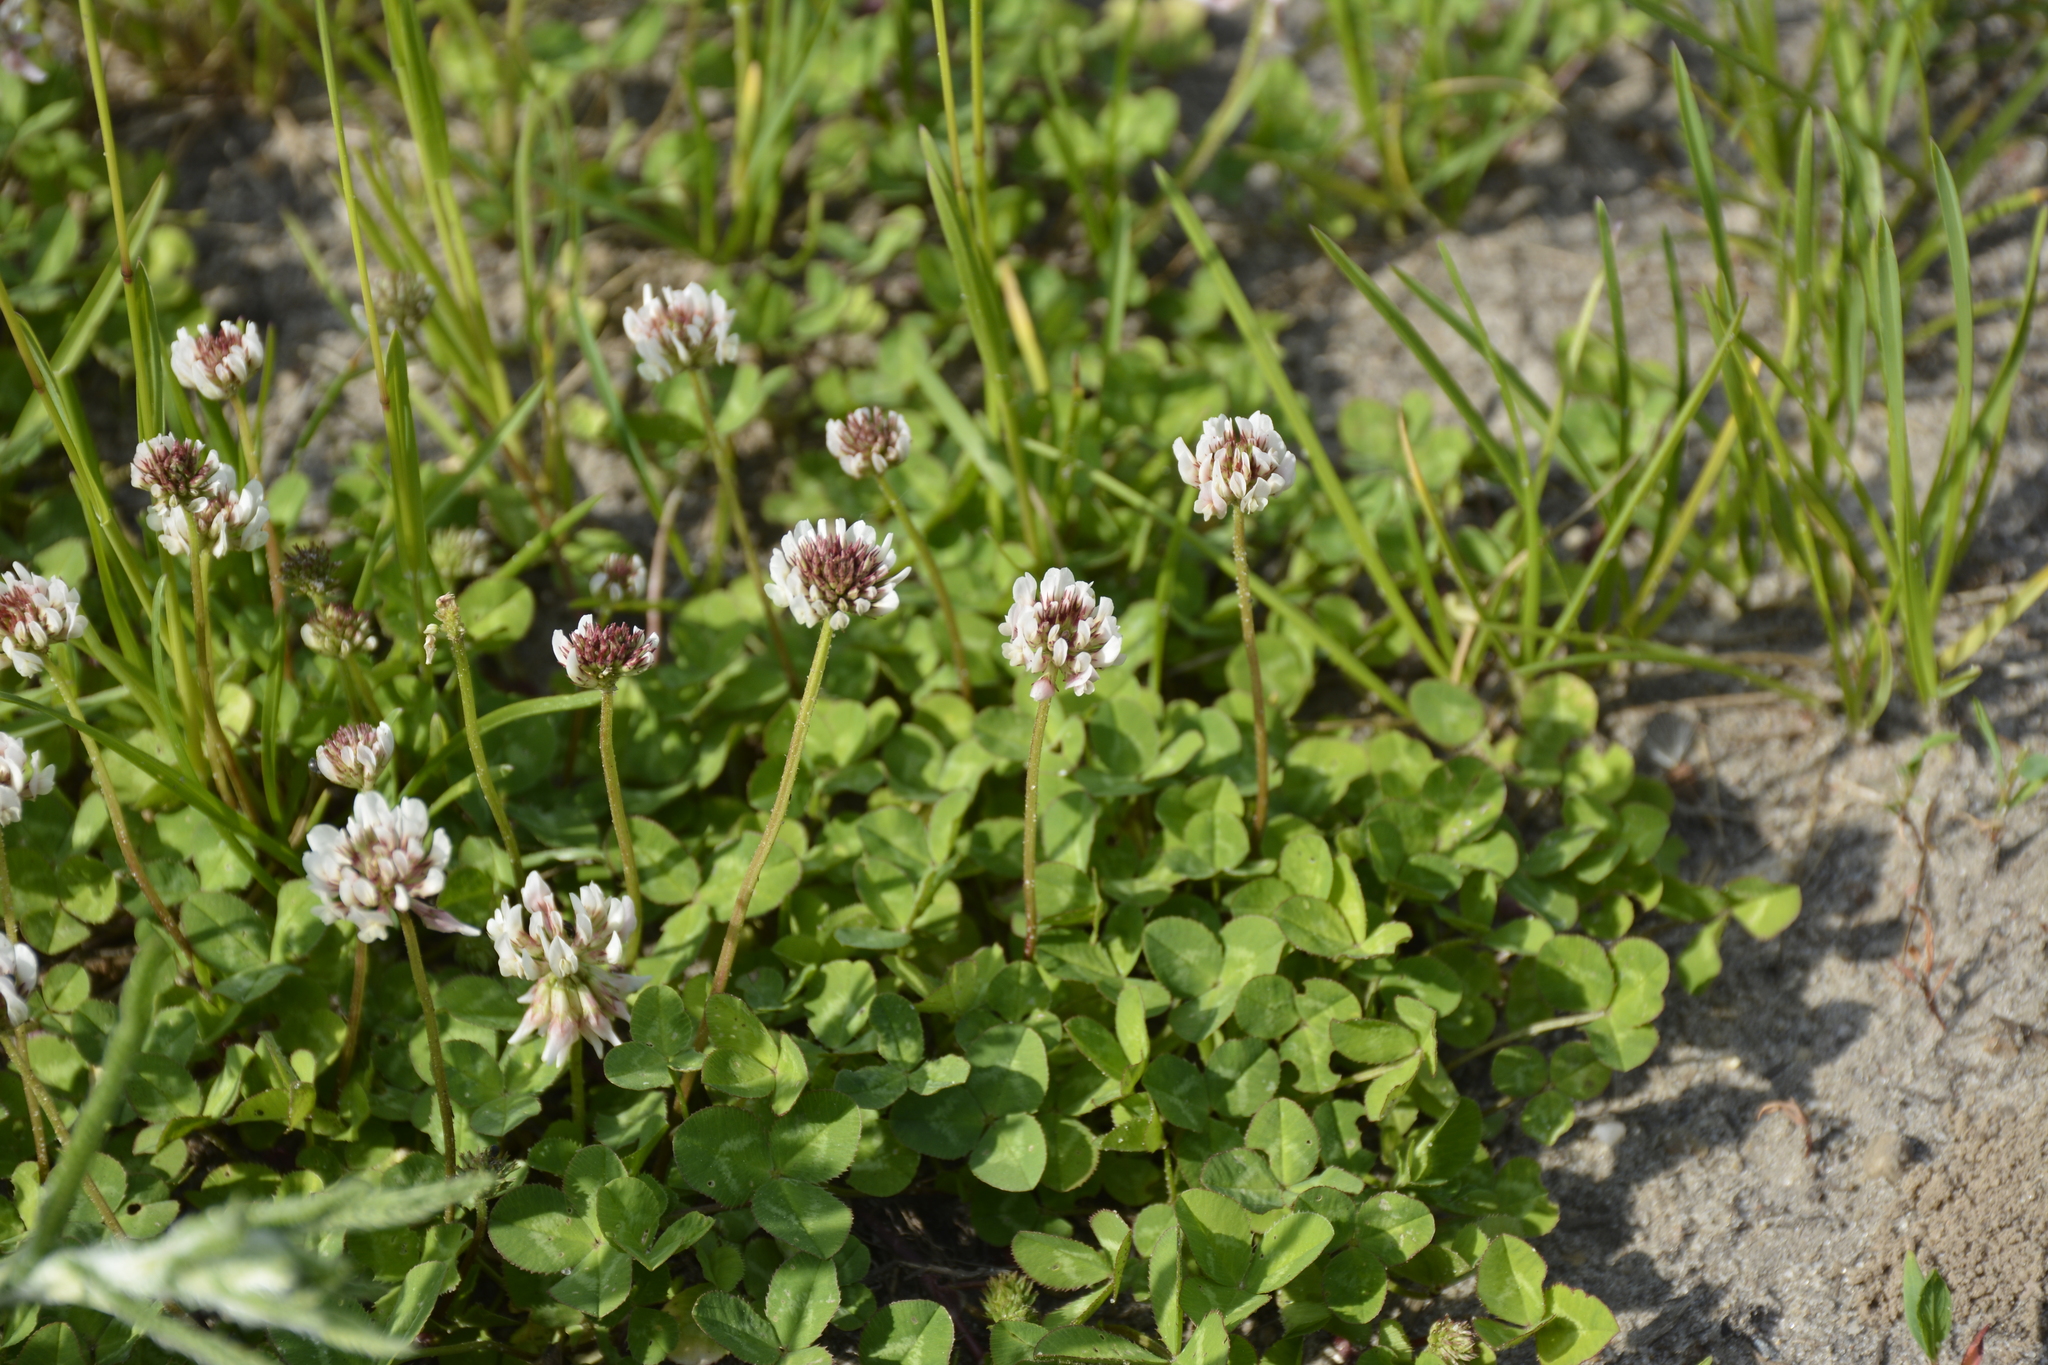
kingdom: Plantae
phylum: Tracheophyta
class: Magnoliopsida
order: Fabales
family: Fabaceae
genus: Trifolium
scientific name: Trifolium repens
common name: White clover
